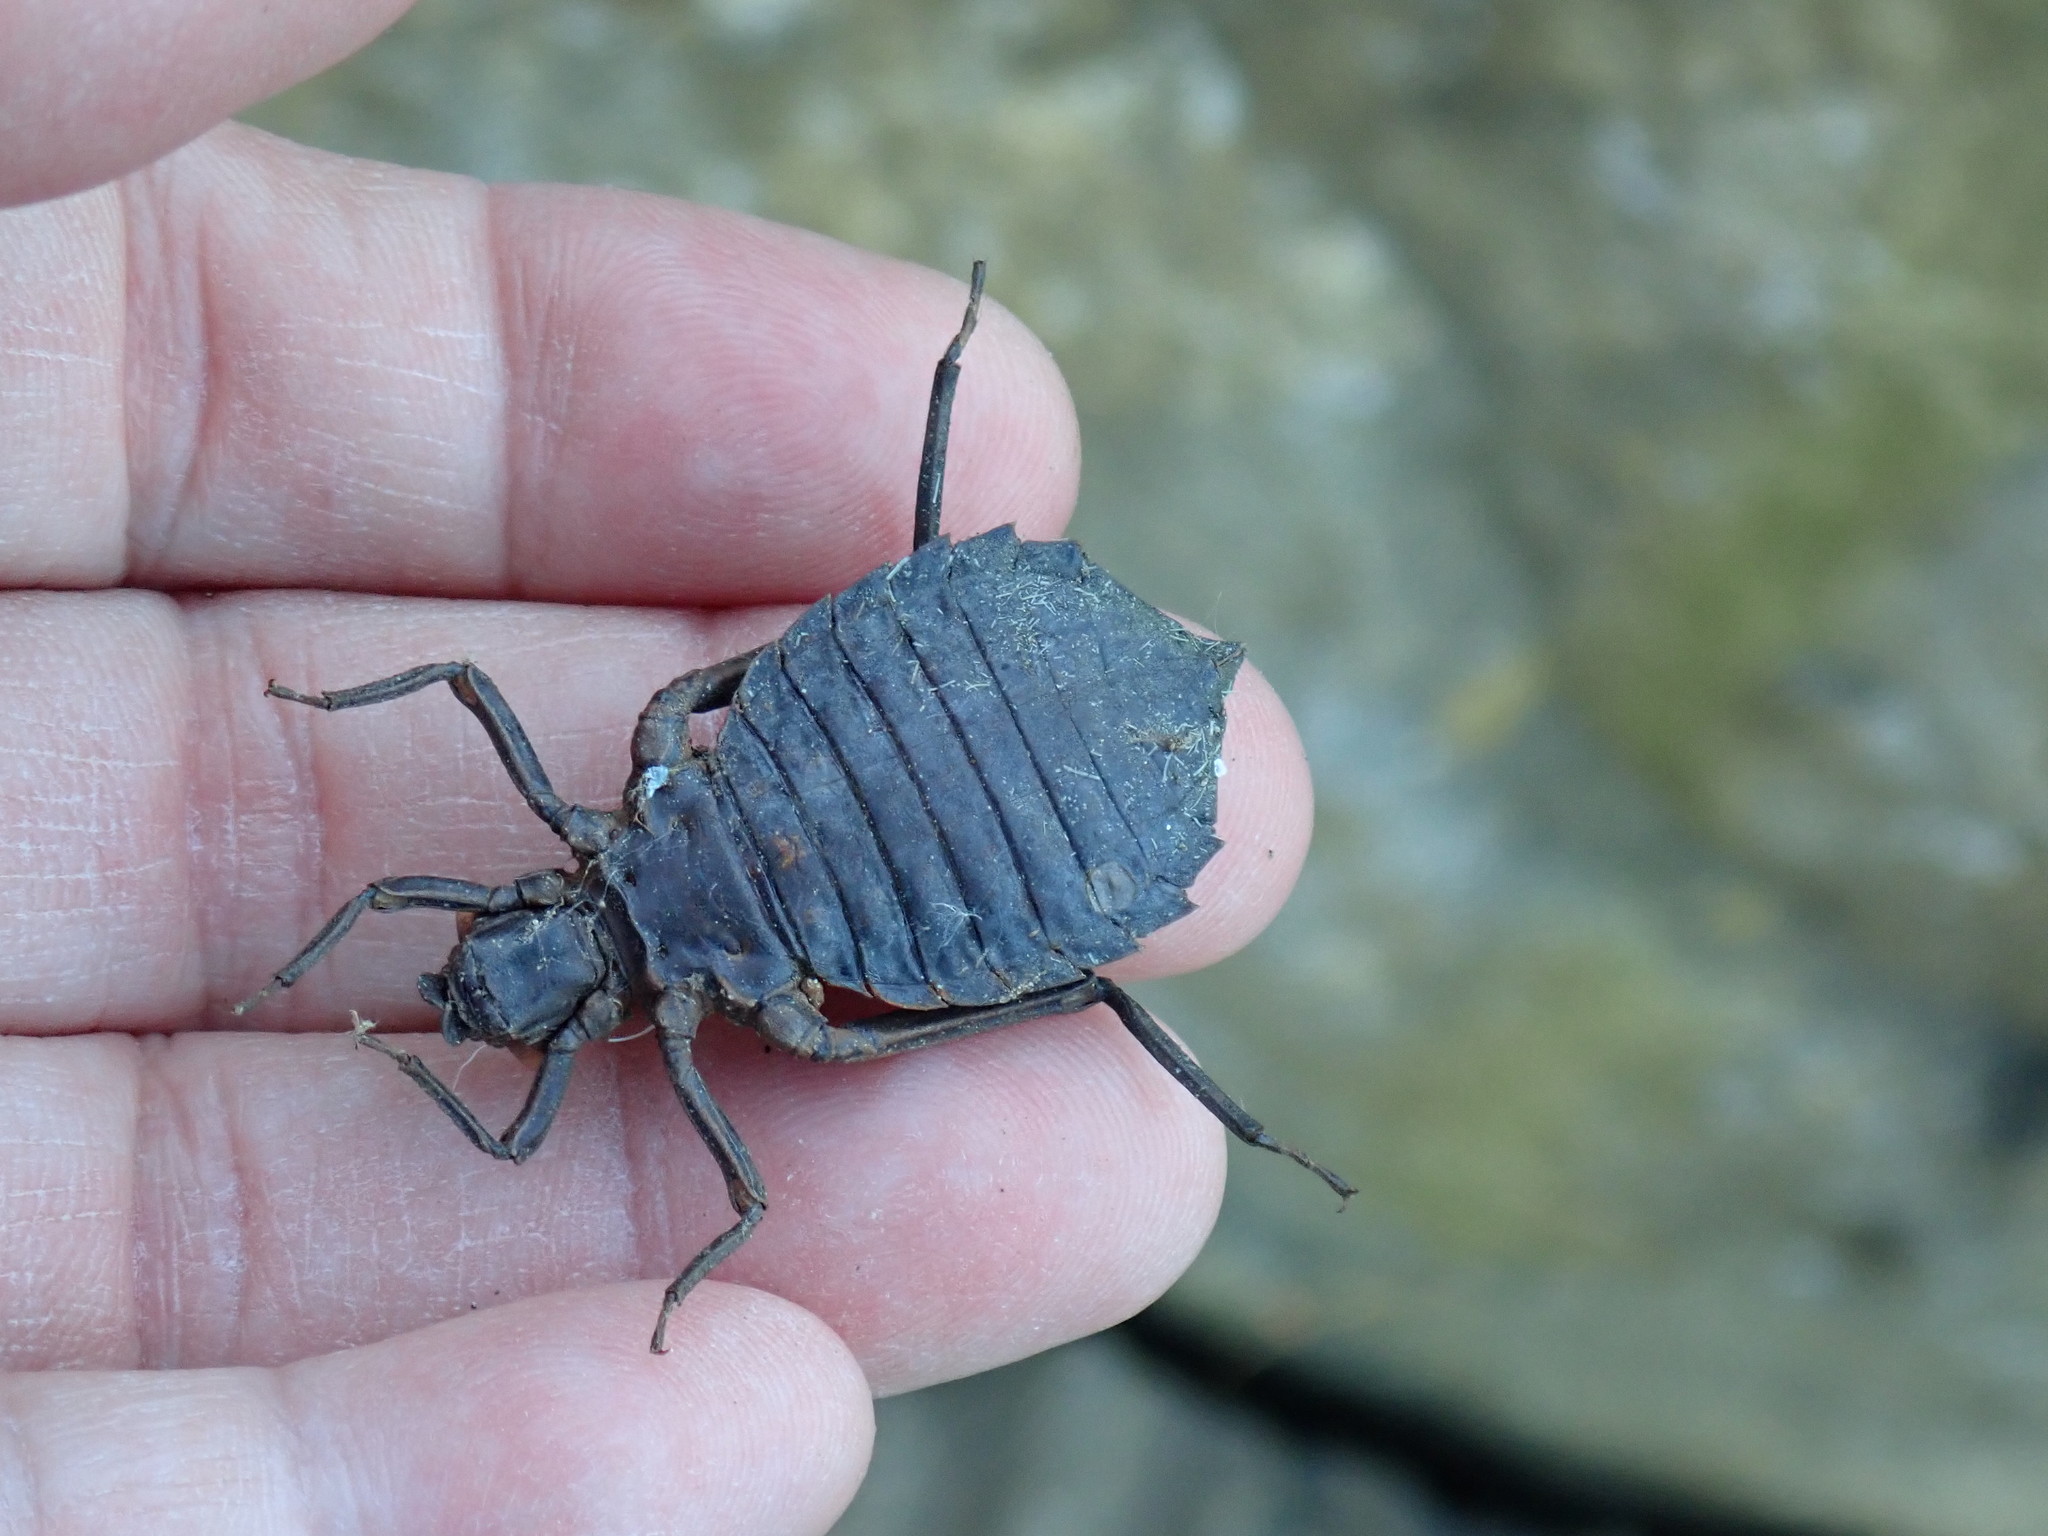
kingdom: Animalia
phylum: Arthropoda
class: Insecta
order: Odonata
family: Gomphidae
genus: Hagenius
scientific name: Hagenius brevistylus
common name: Dragonhunter
